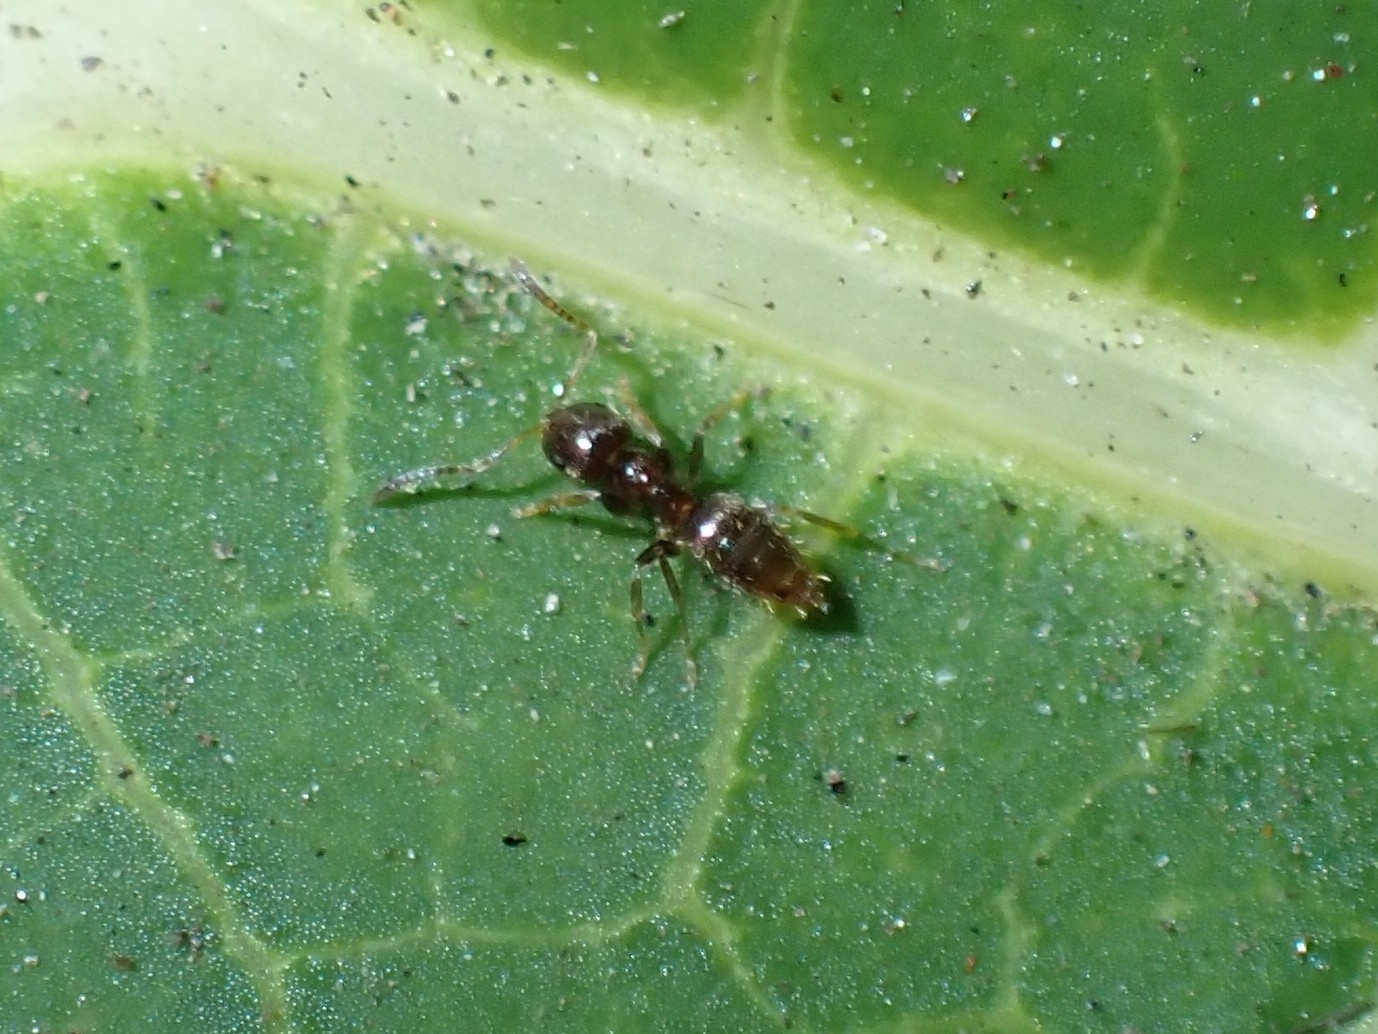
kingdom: Animalia
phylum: Arthropoda
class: Insecta
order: Hymenoptera
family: Formicidae
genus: Brachymyrmex
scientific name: Brachymyrmex cordemoyi
